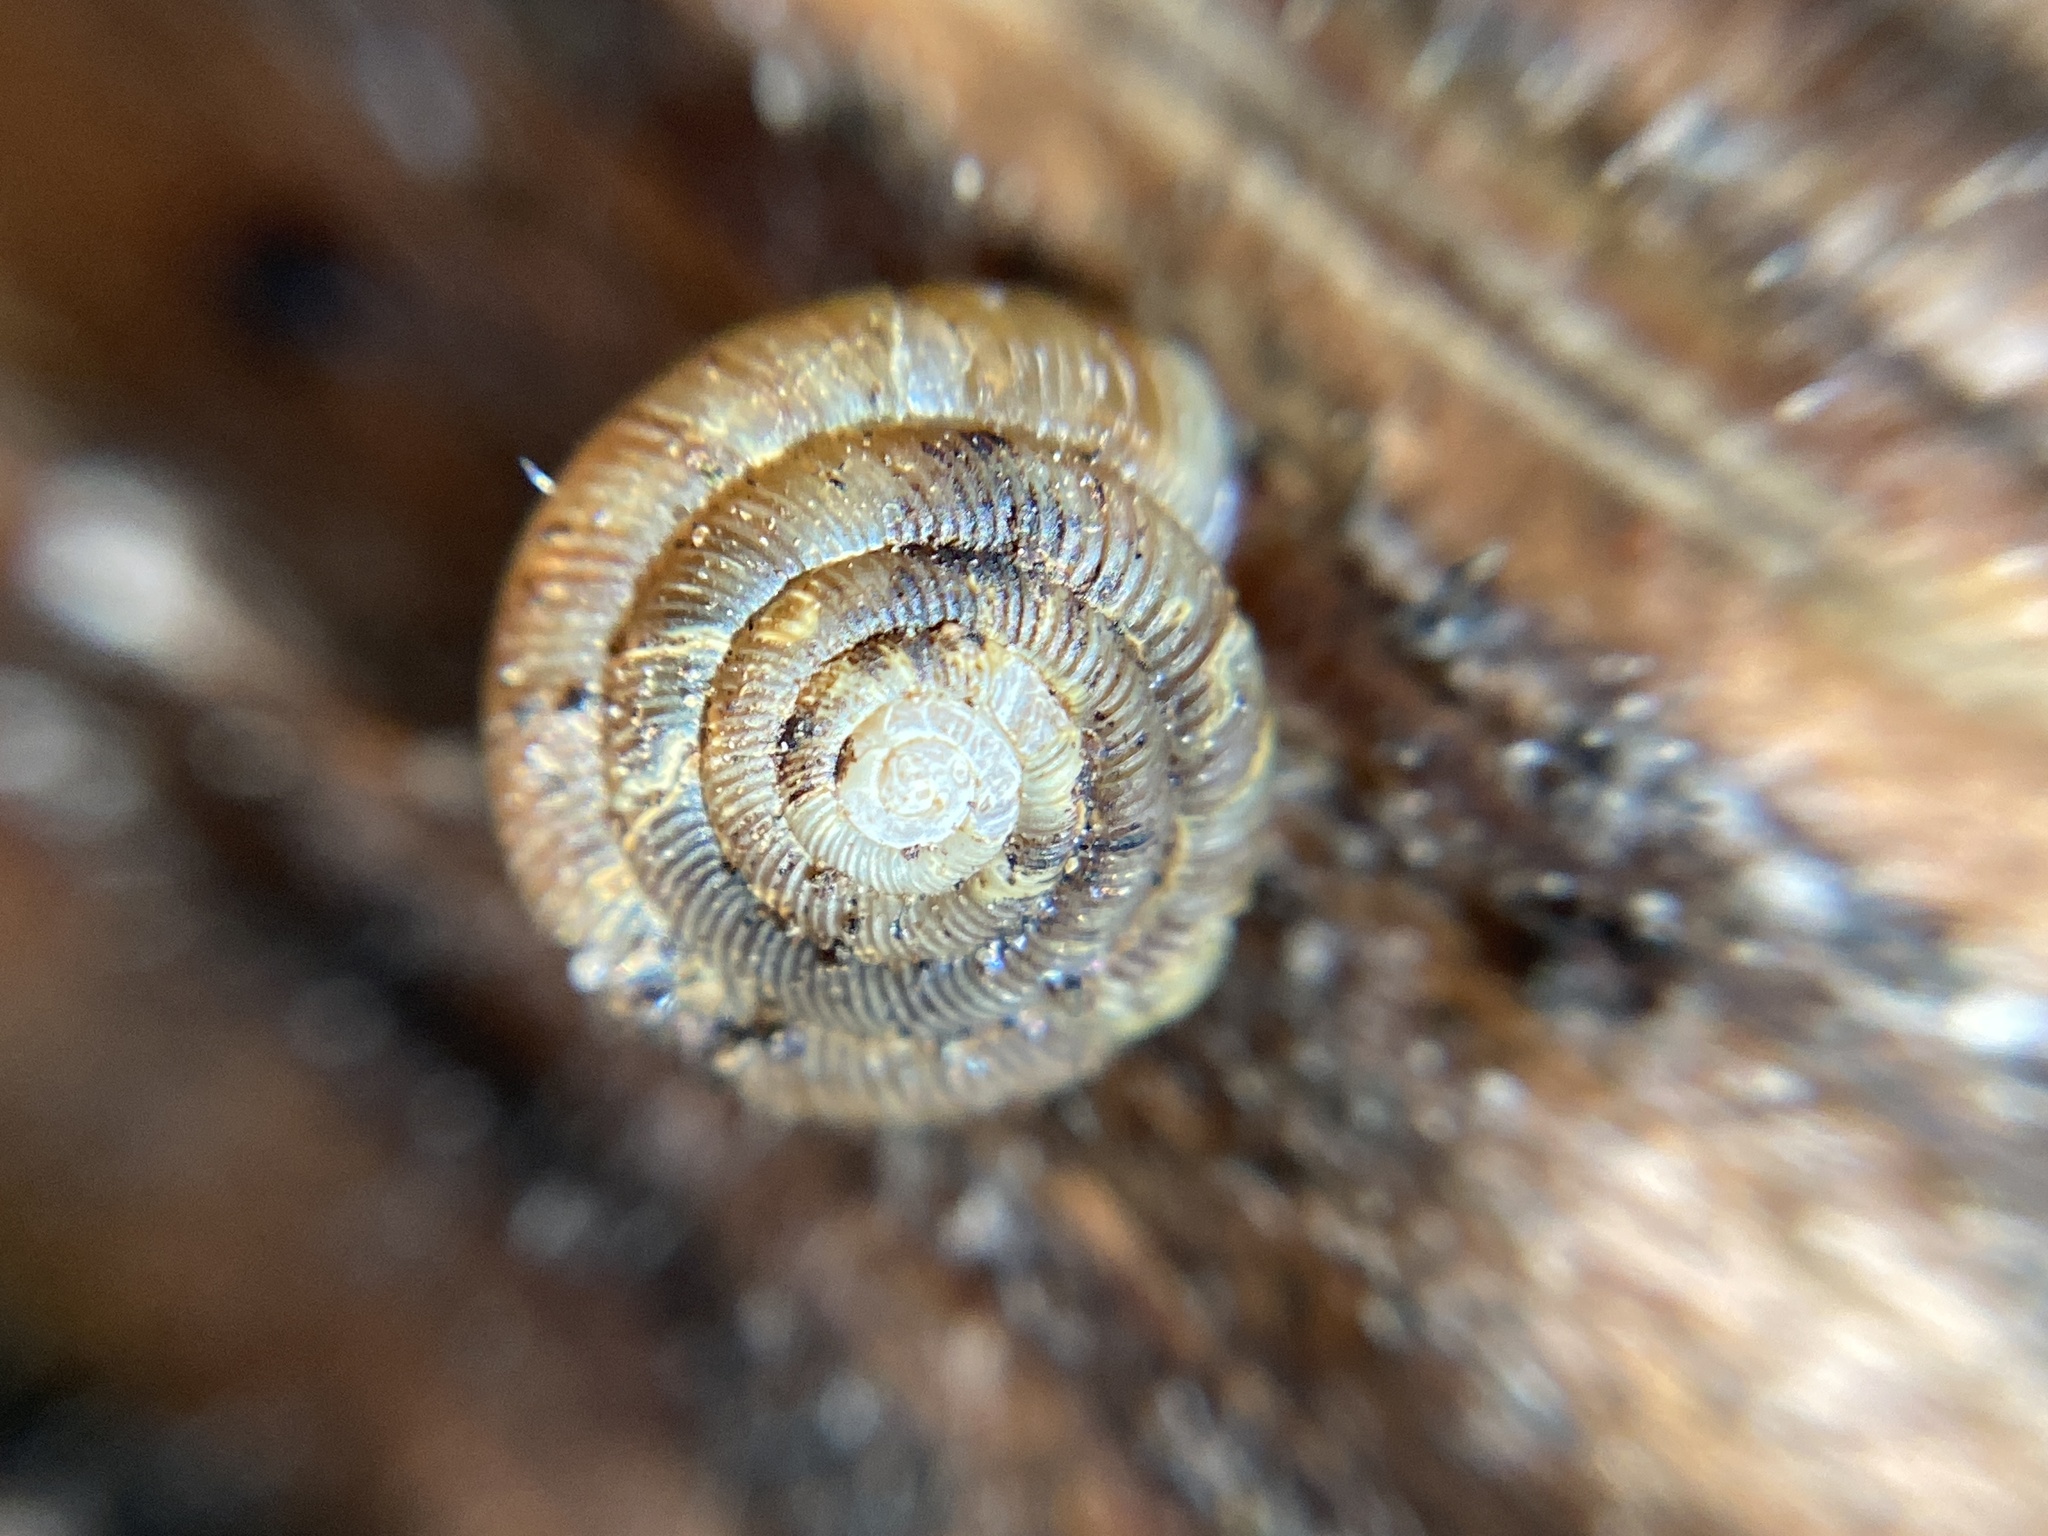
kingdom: Animalia
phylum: Mollusca
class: Gastropoda
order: Stylommatophora
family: Discidae
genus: Discus
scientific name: Discus rotundatus
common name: Rounded snail
